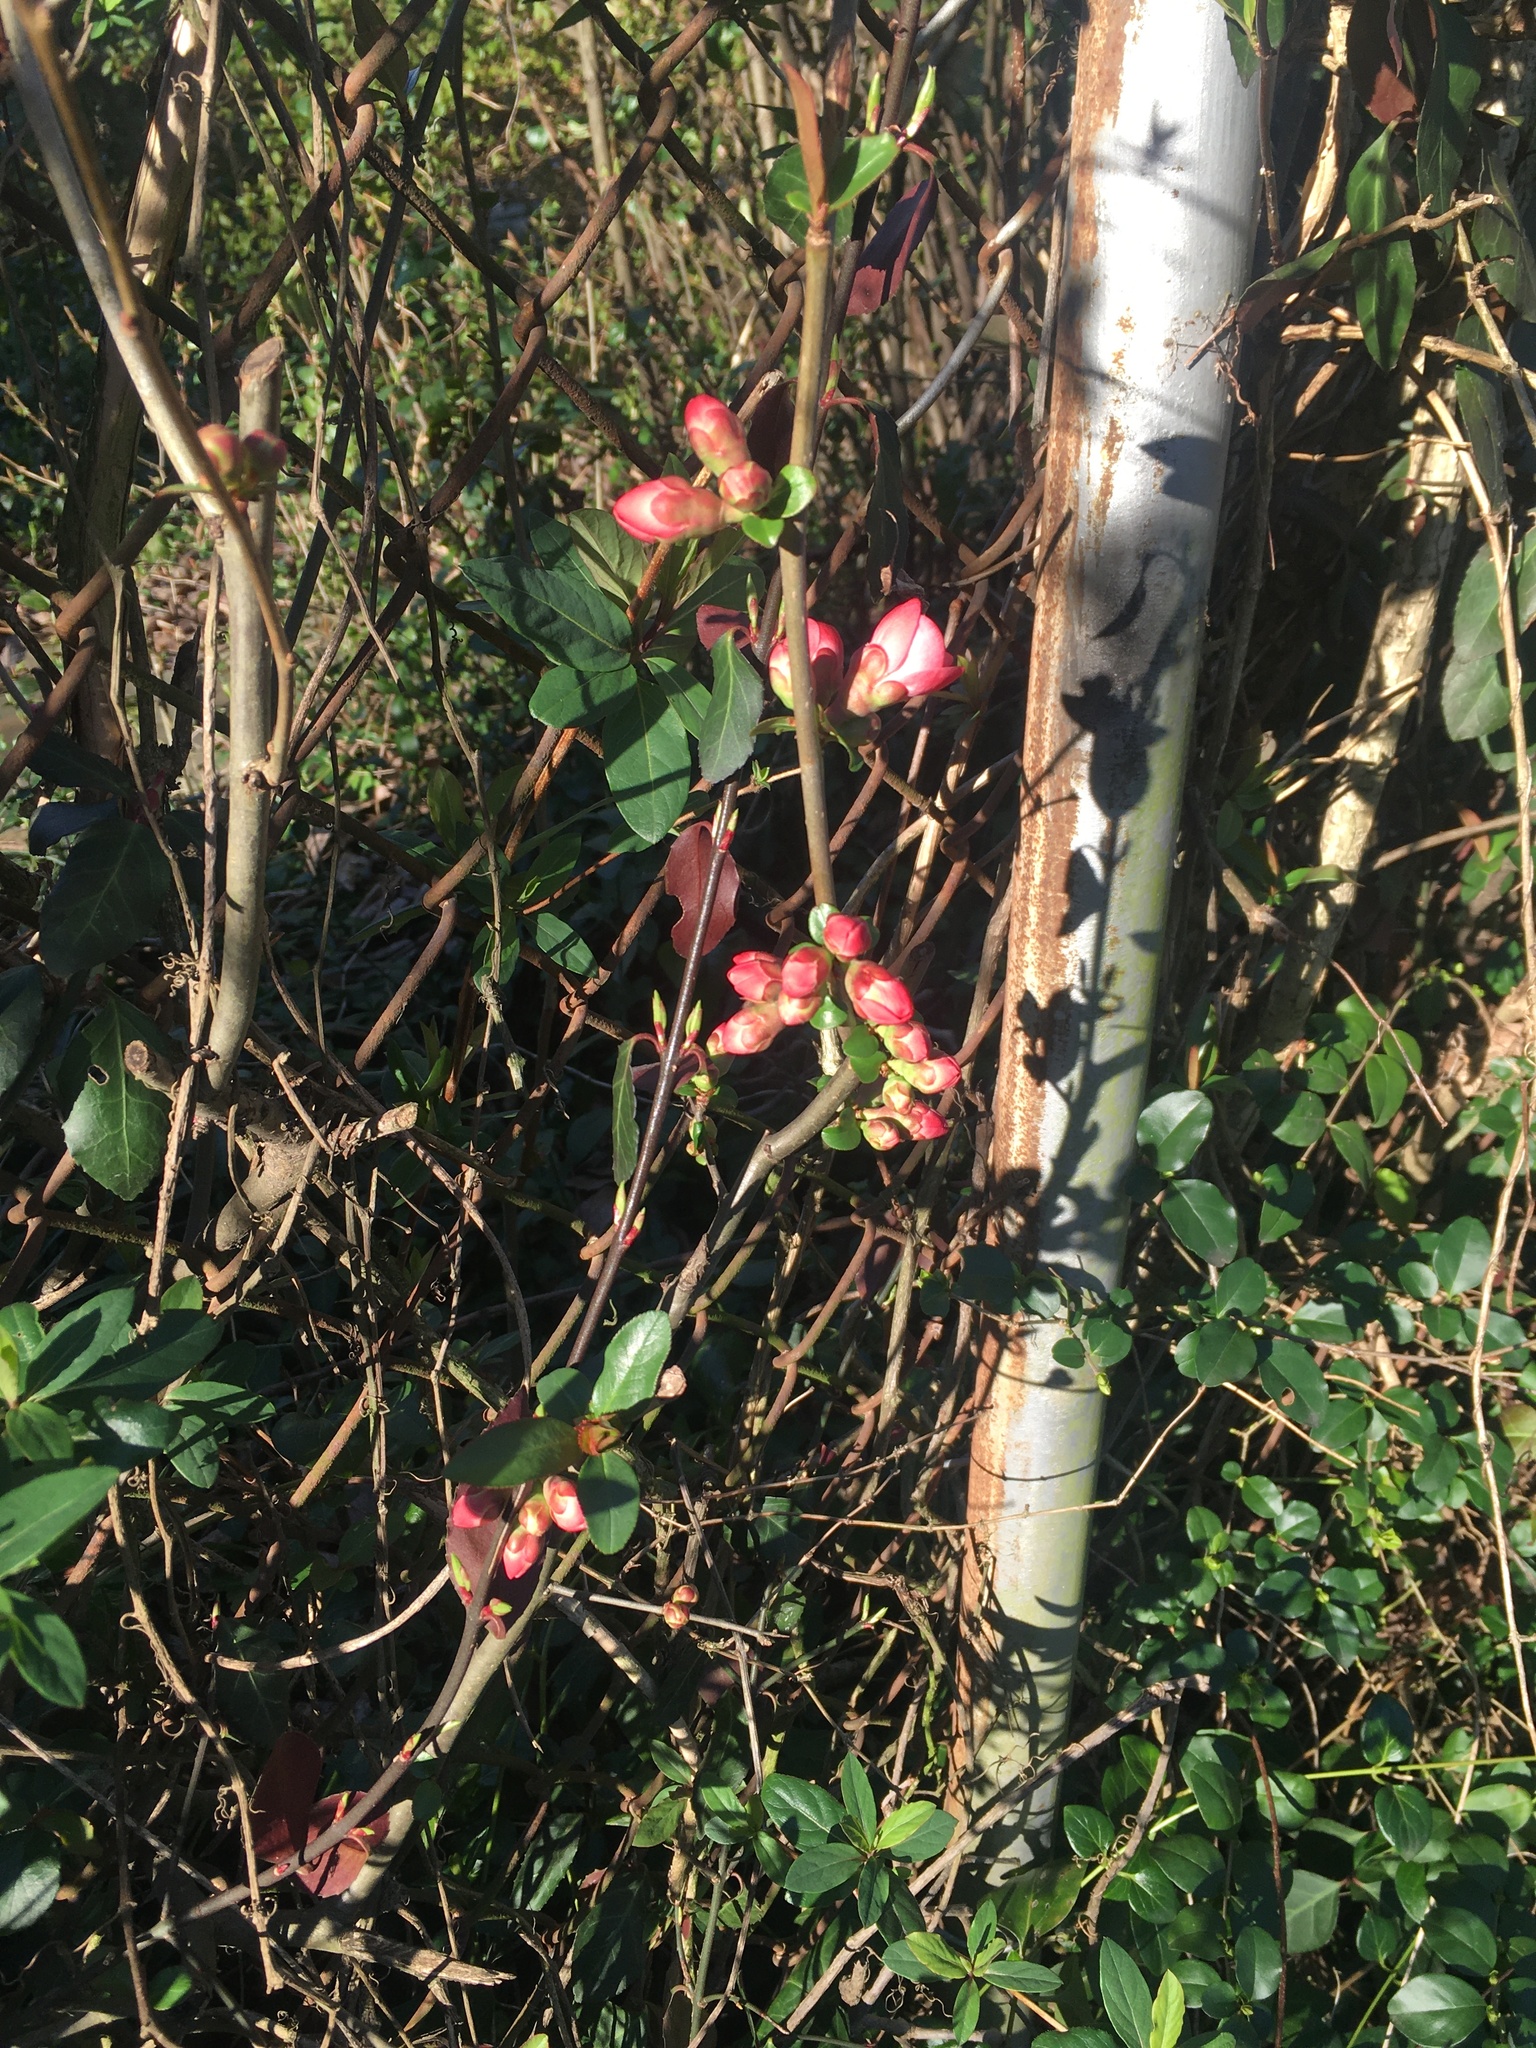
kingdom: Plantae
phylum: Tracheophyta
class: Magnoliopsida
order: Rosales
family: Rosaceae
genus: Chaenomeles
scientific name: Chaenomeles speciosa
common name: Japanese quince
